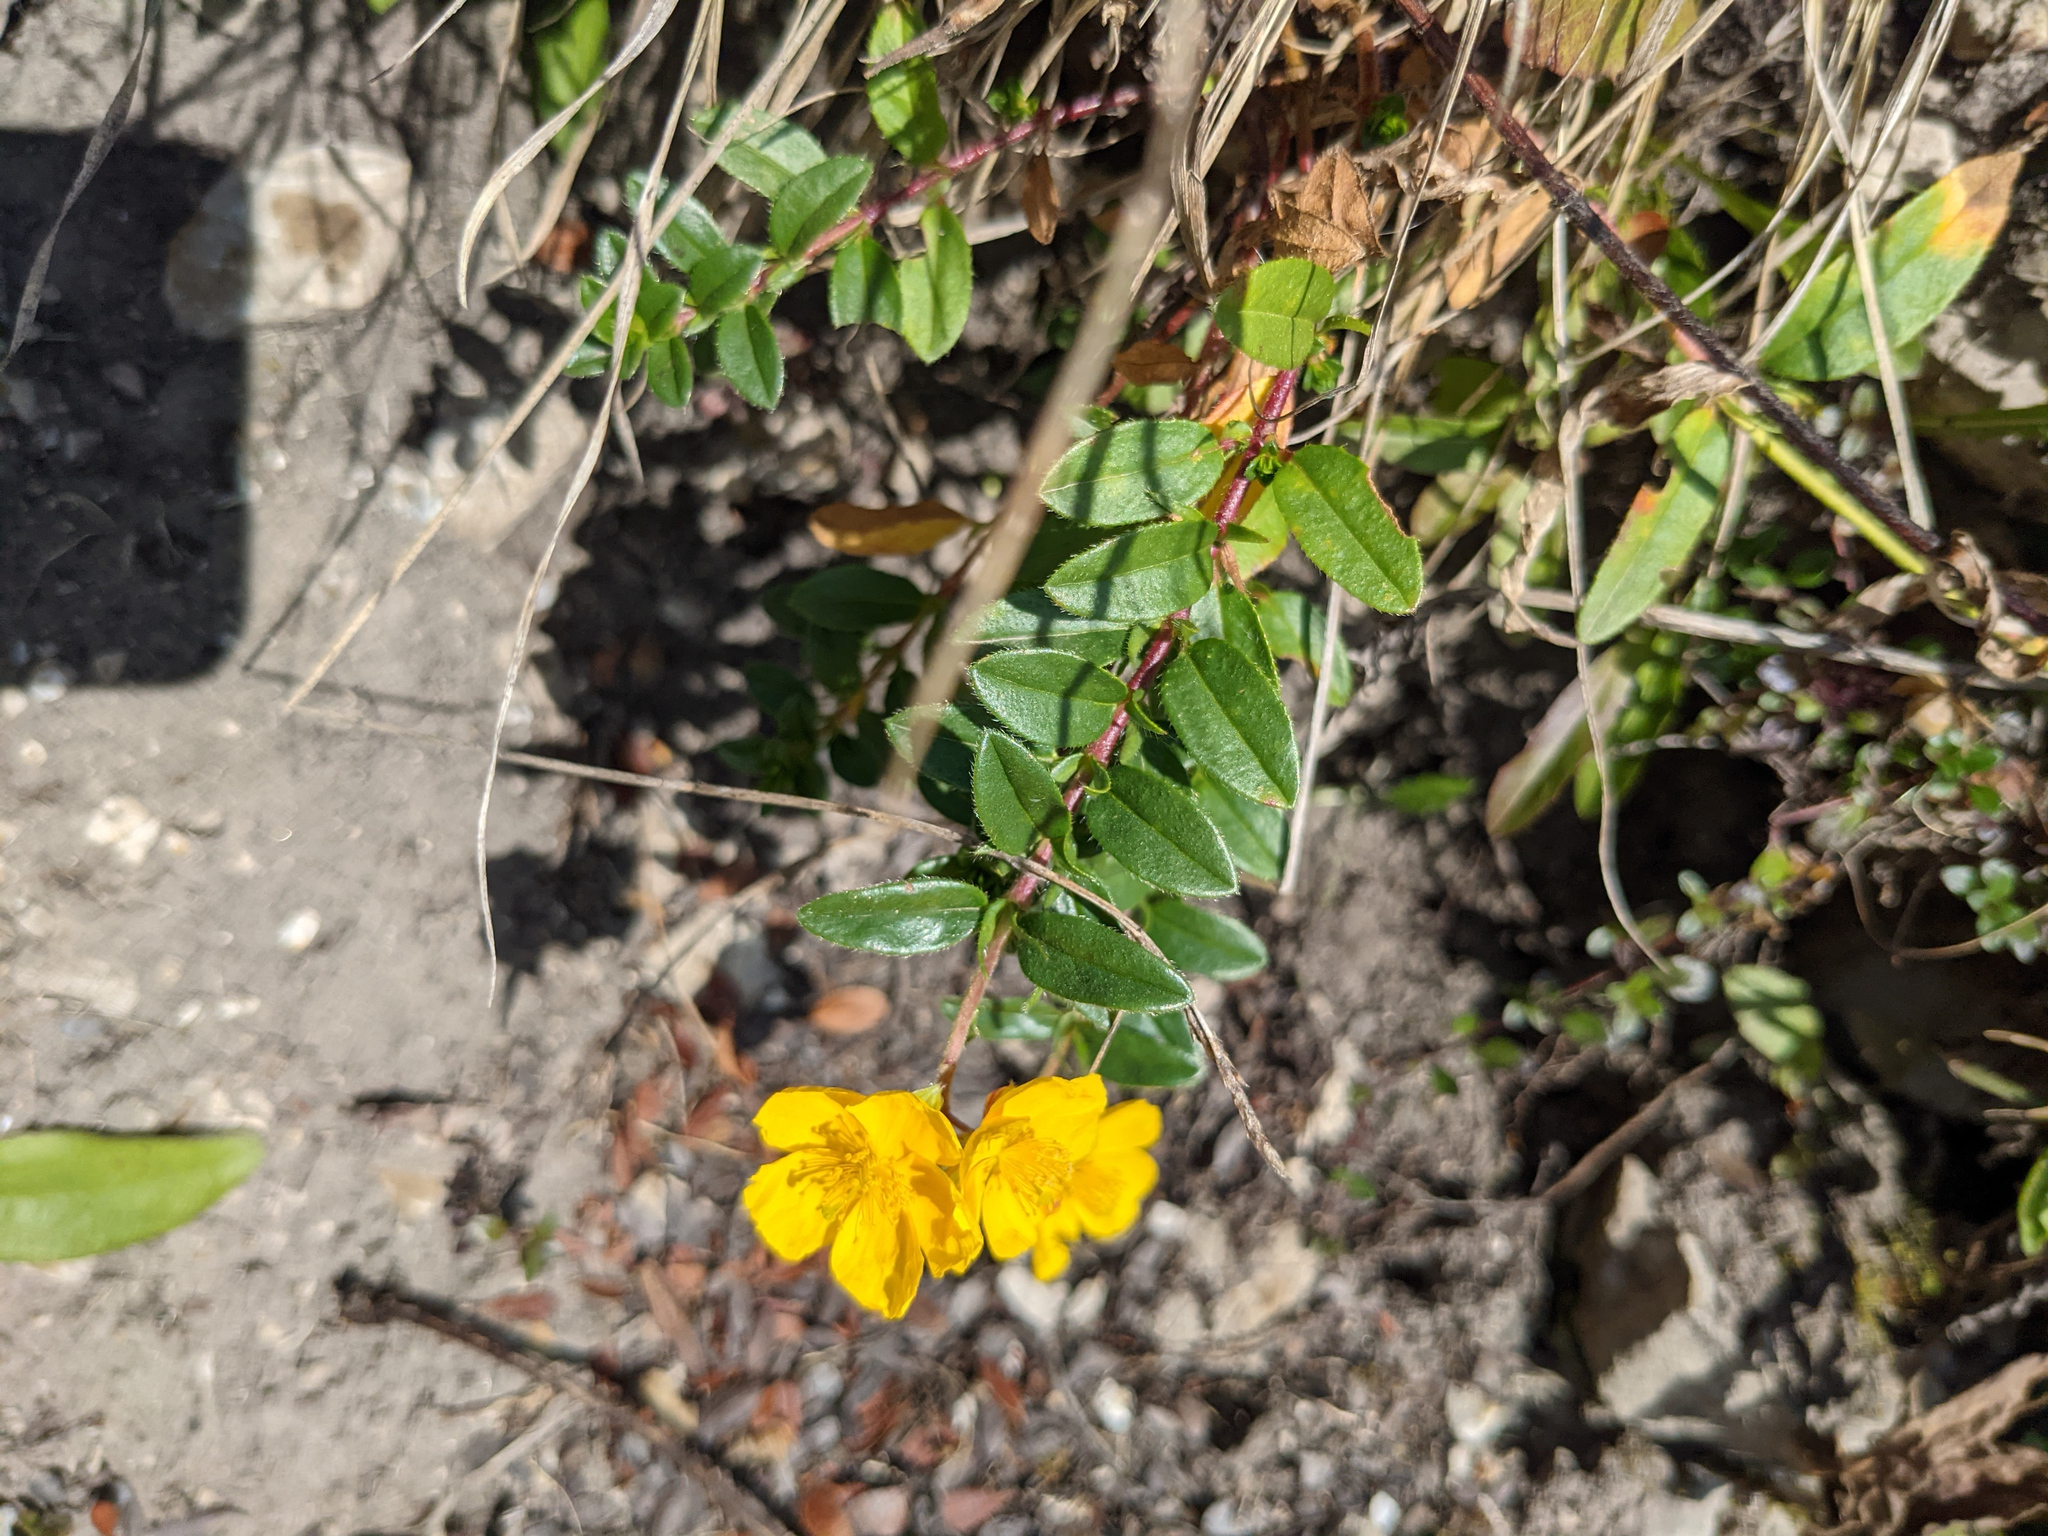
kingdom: Plantae
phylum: Tracheophyta
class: Magnoliopsida
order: Malvales
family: Cistaceae
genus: Helianthemum
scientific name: Helianthemum nummularium
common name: Common rock-rose
